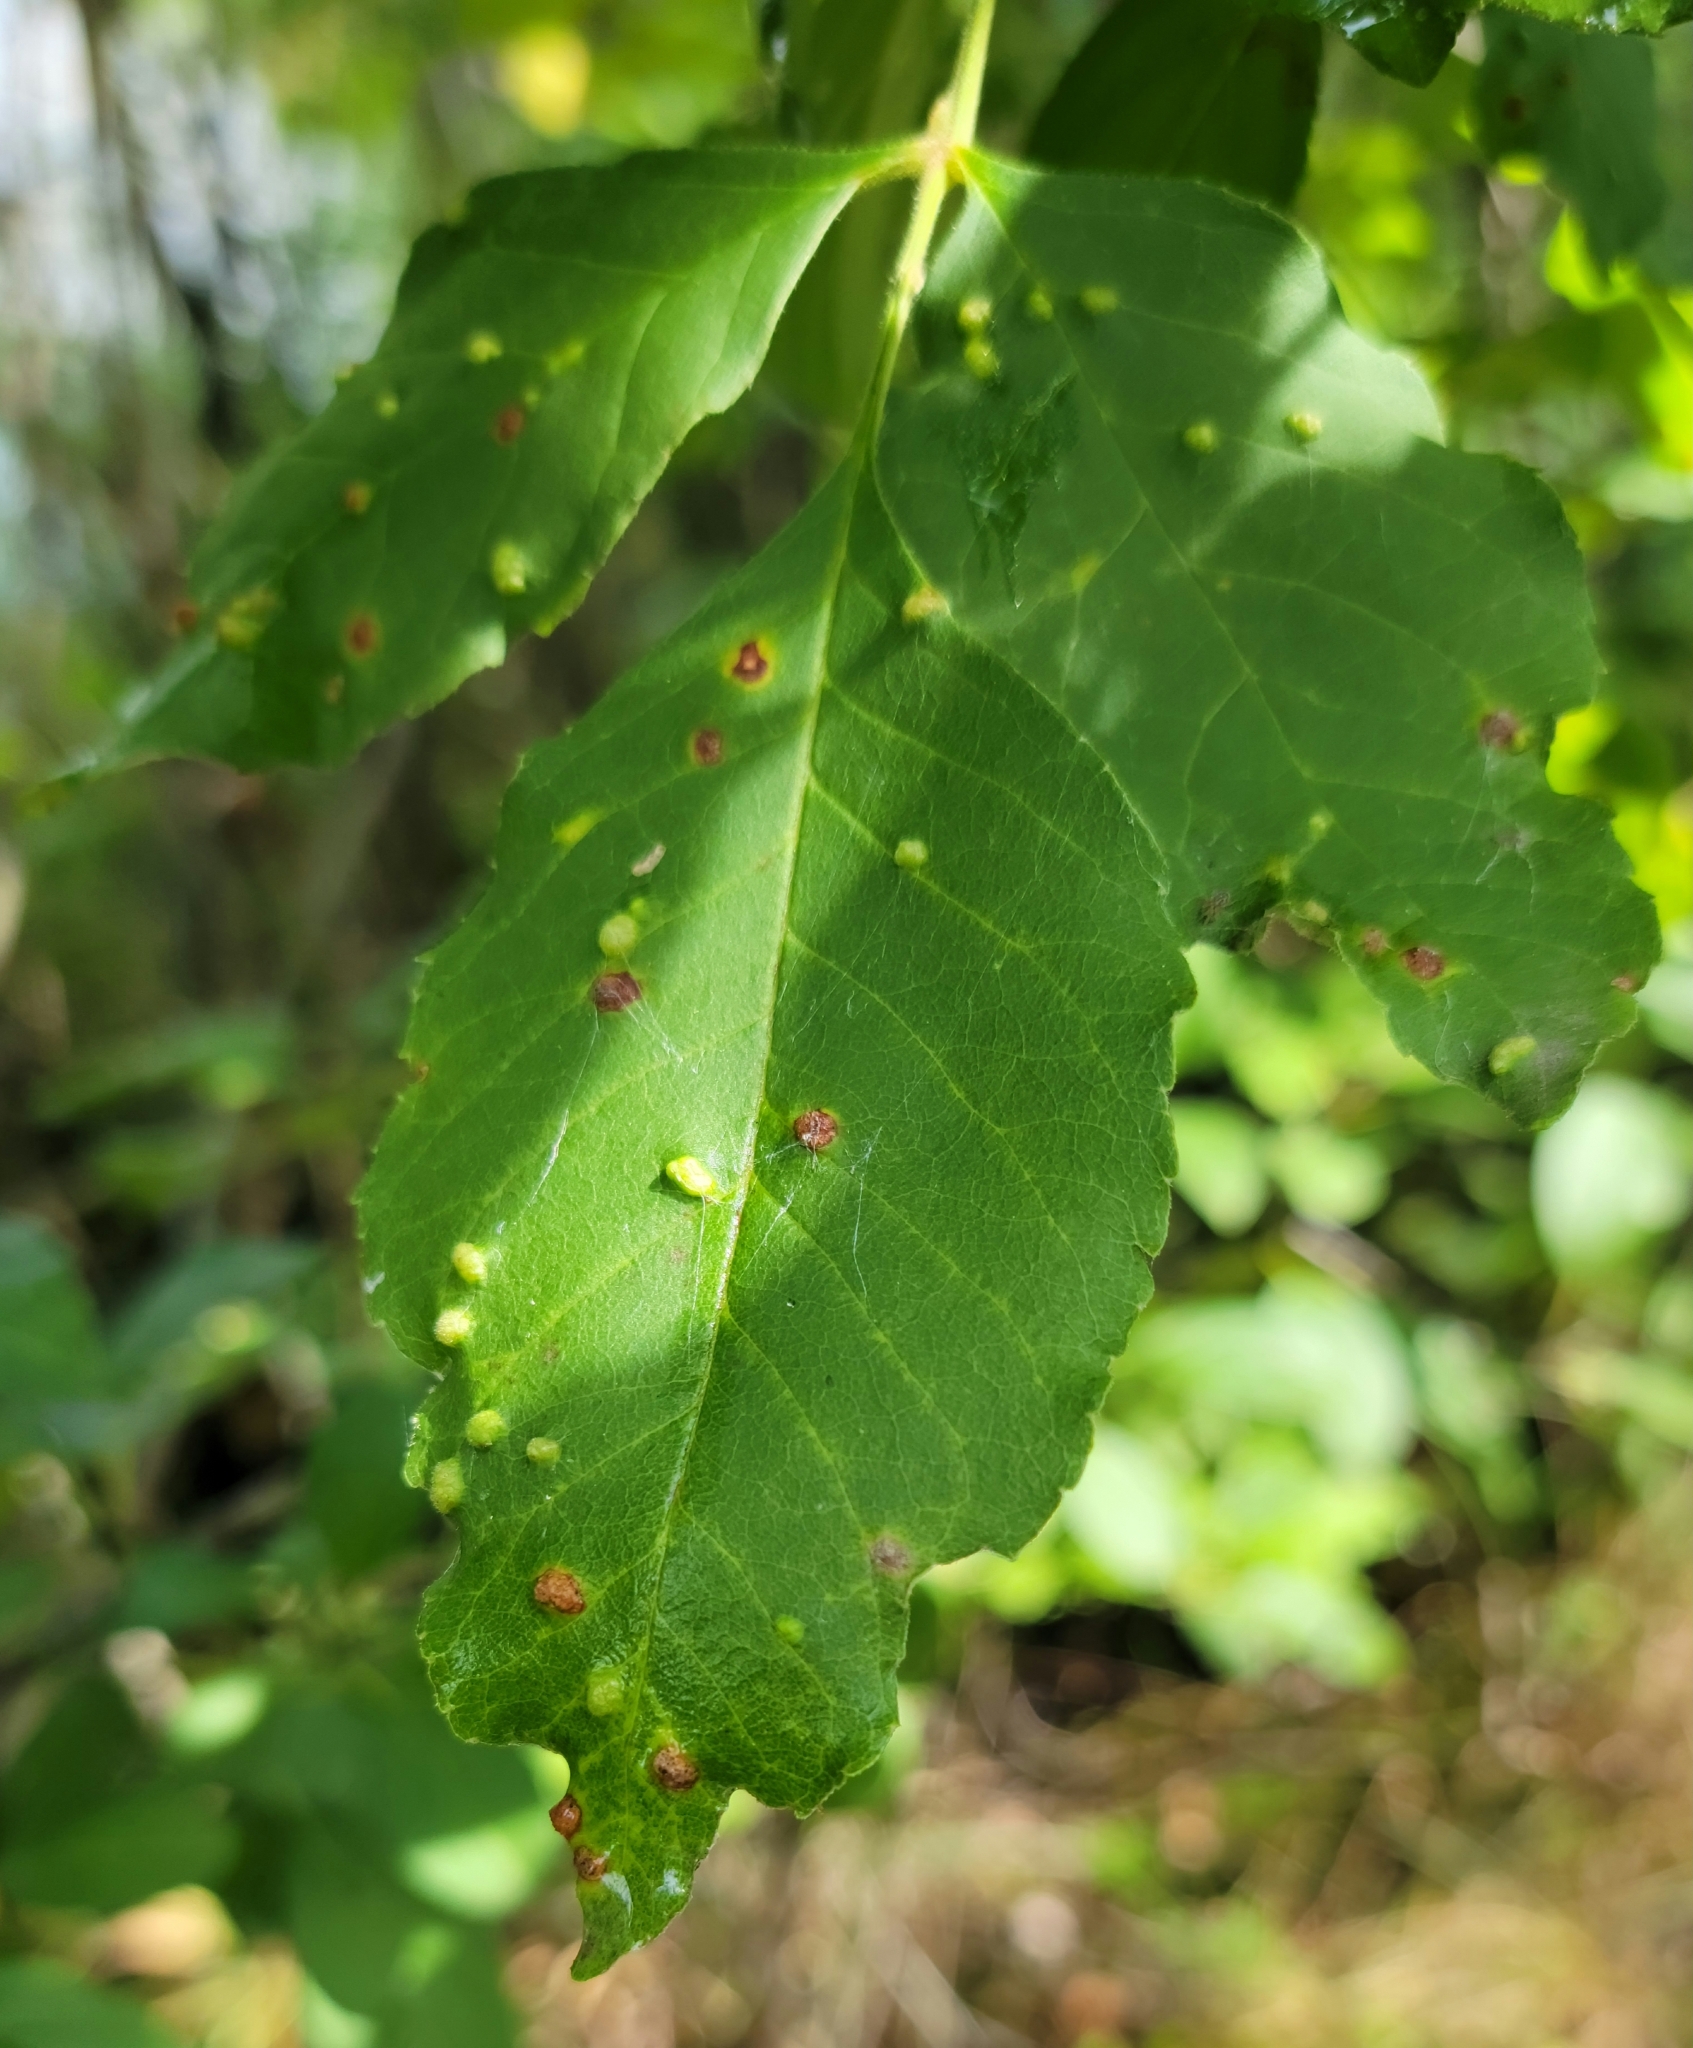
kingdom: Animalia
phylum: Arthropoda
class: Arachnida
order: Trombidiformes
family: Eriophyidae
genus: Aceria
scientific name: Aceria fraxinicola
